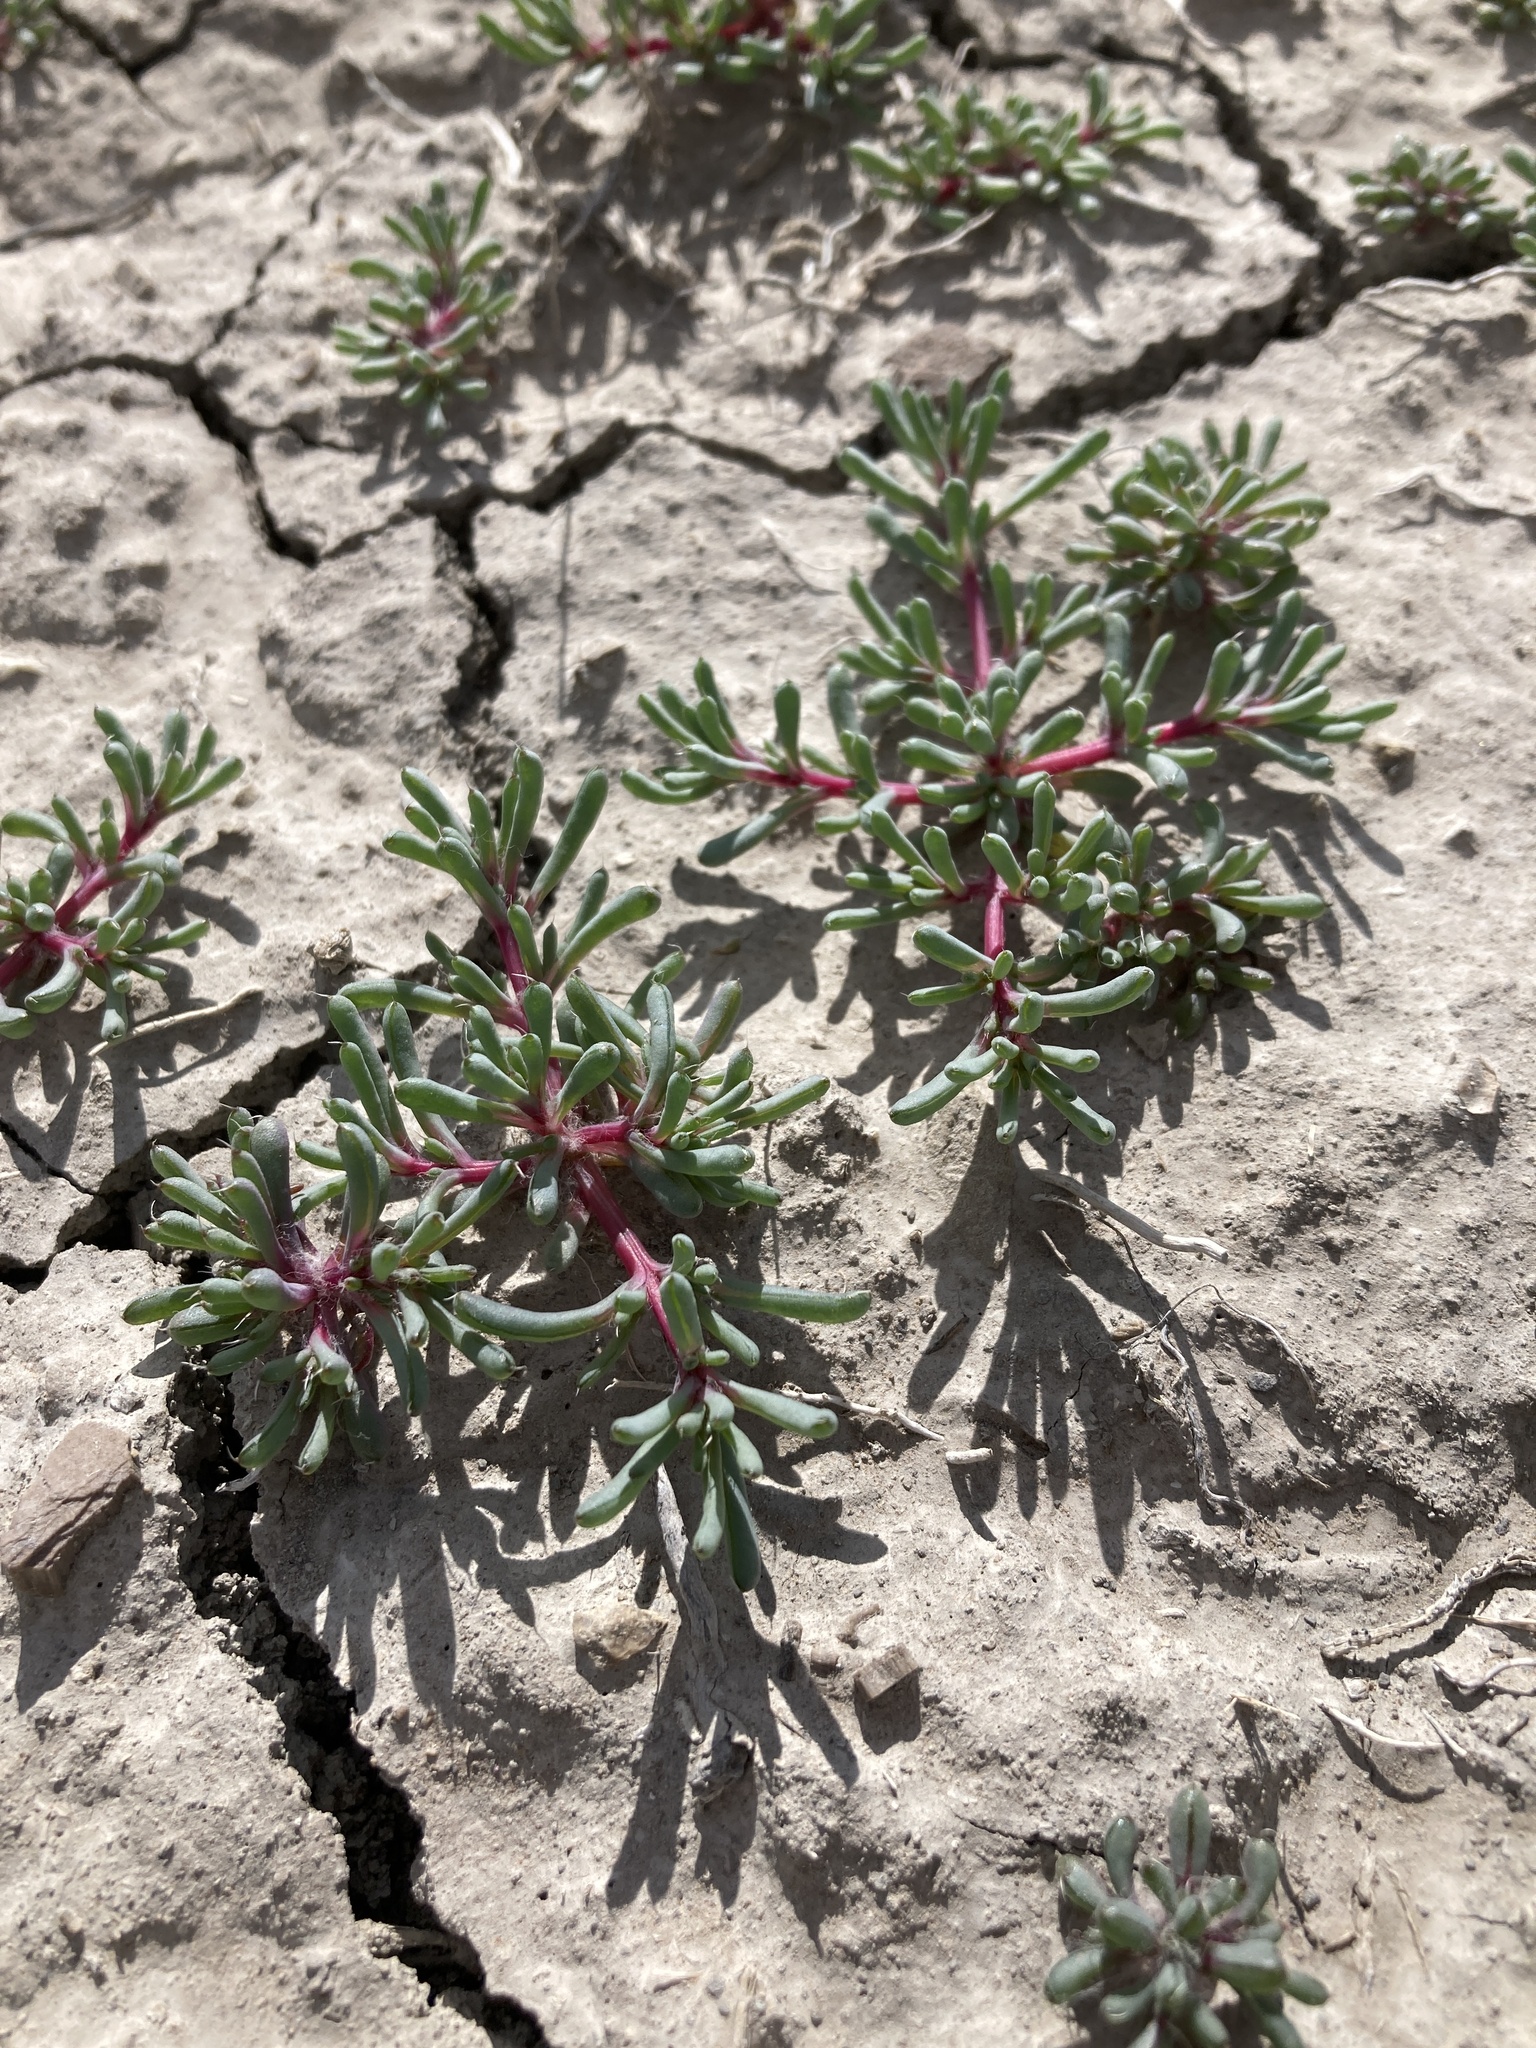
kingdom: Plantae
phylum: Tracheophyta
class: Magnoliopsida
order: Caryophyllales
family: Amaranthaceae
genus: Halogeton
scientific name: Halogeton glomeratus
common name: Saltlover
